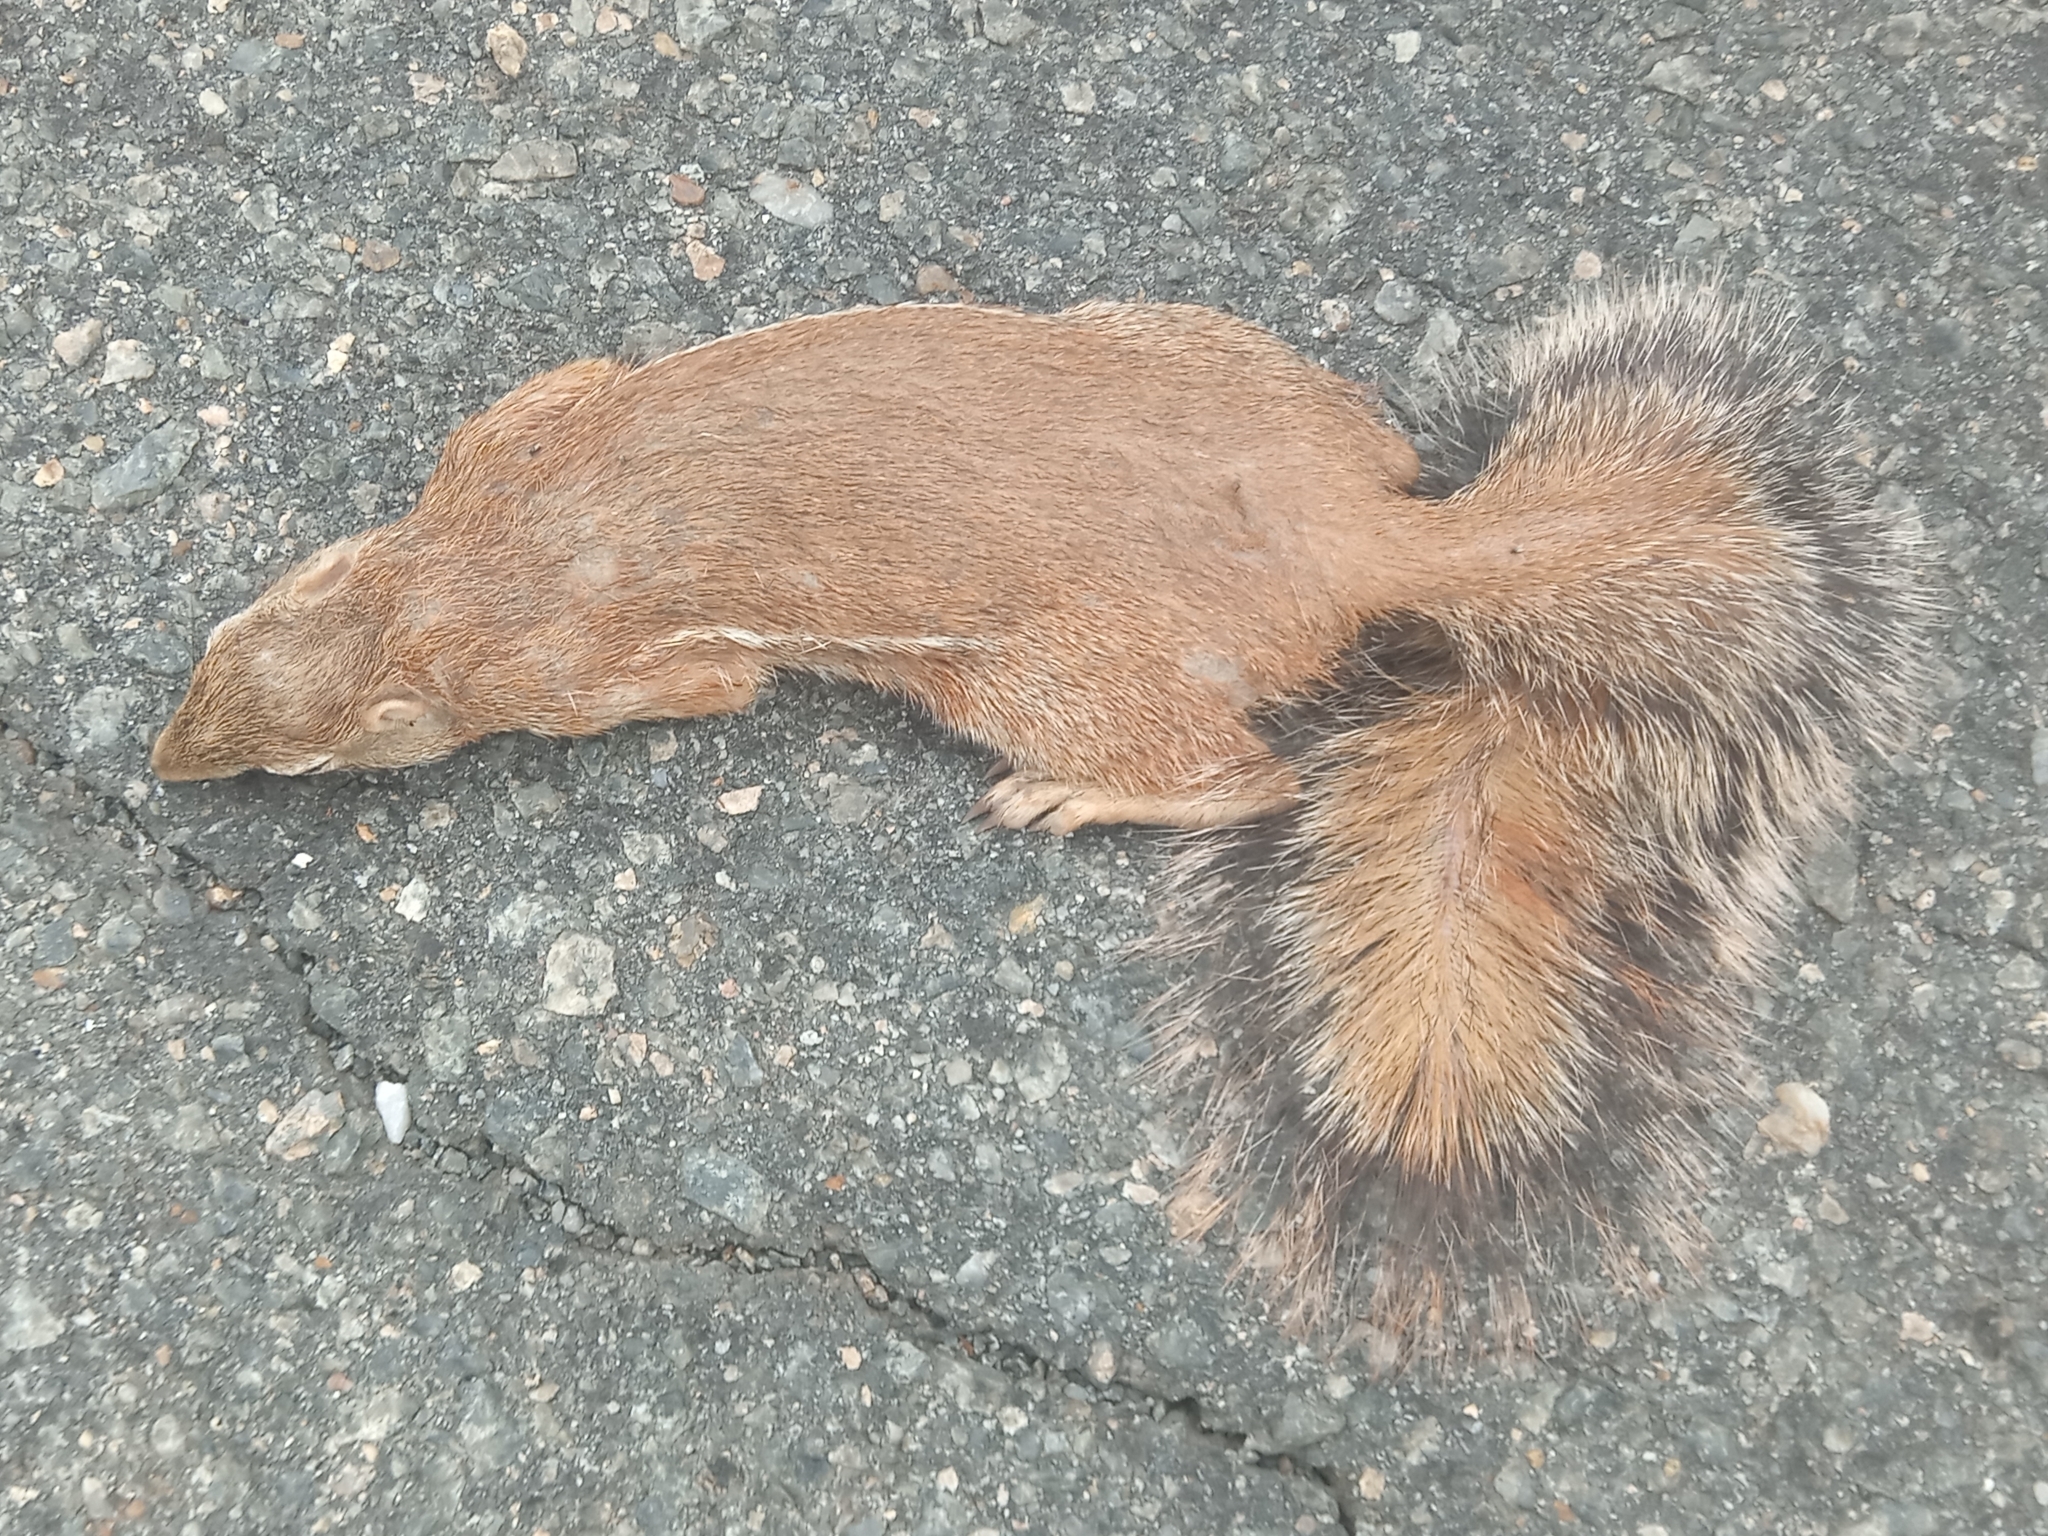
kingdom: Animalia
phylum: Chordata
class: Mammalia
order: Rodentia
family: Sciuridae
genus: Xerus
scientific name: Xerus erythropus
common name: Striped ground squirrel
